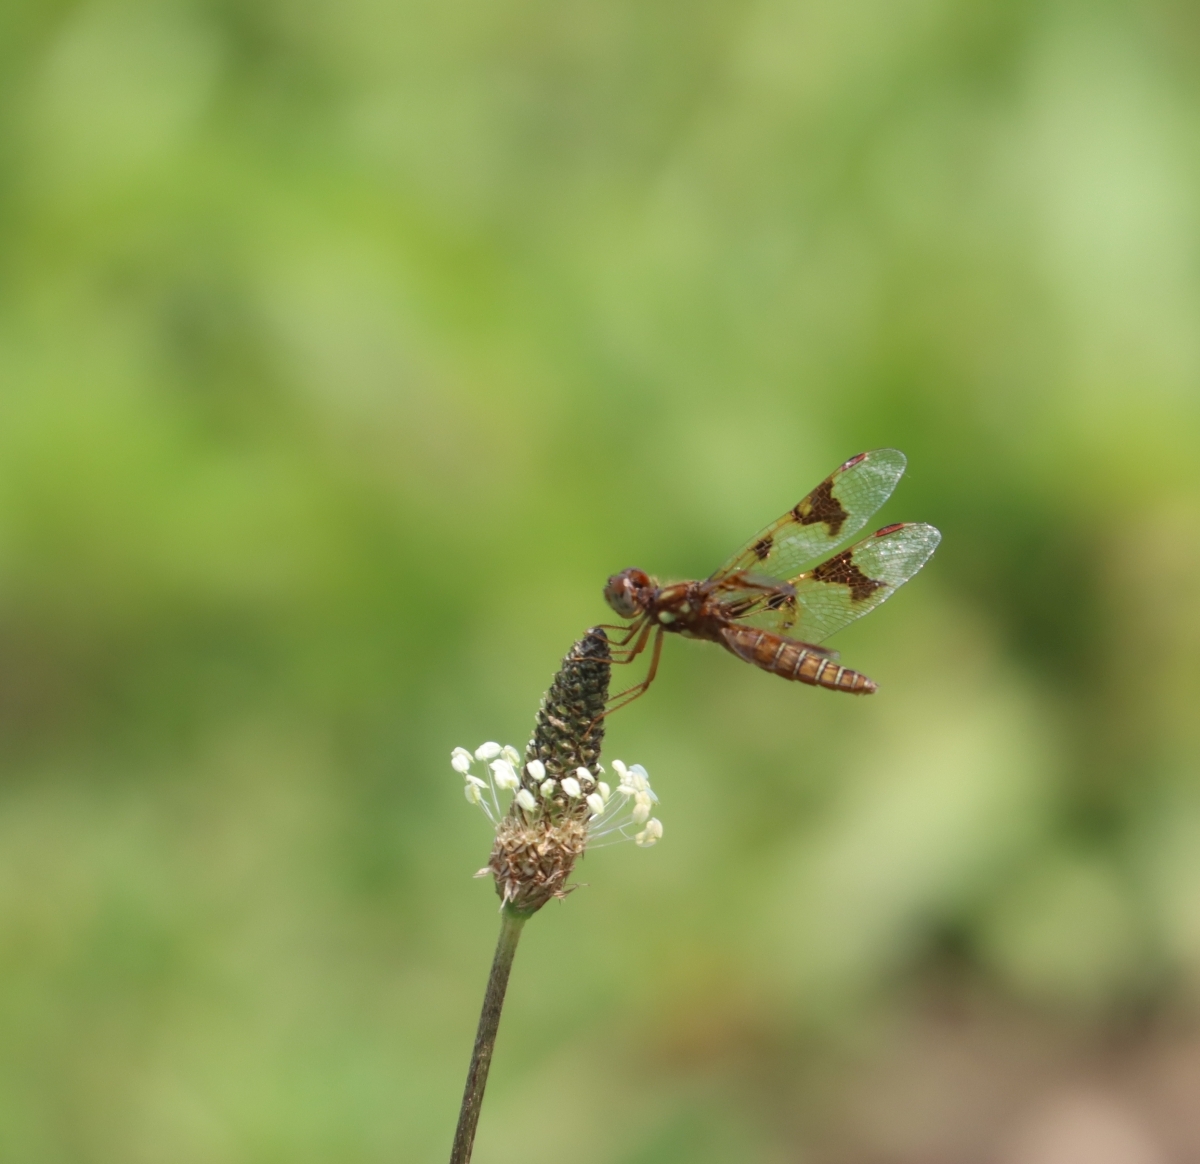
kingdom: Animalia
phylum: Arthropoda
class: Insecta
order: Odonata
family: Libellulidae
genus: Perithemis
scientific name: Perithemis tenera
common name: Eastern amberwing
